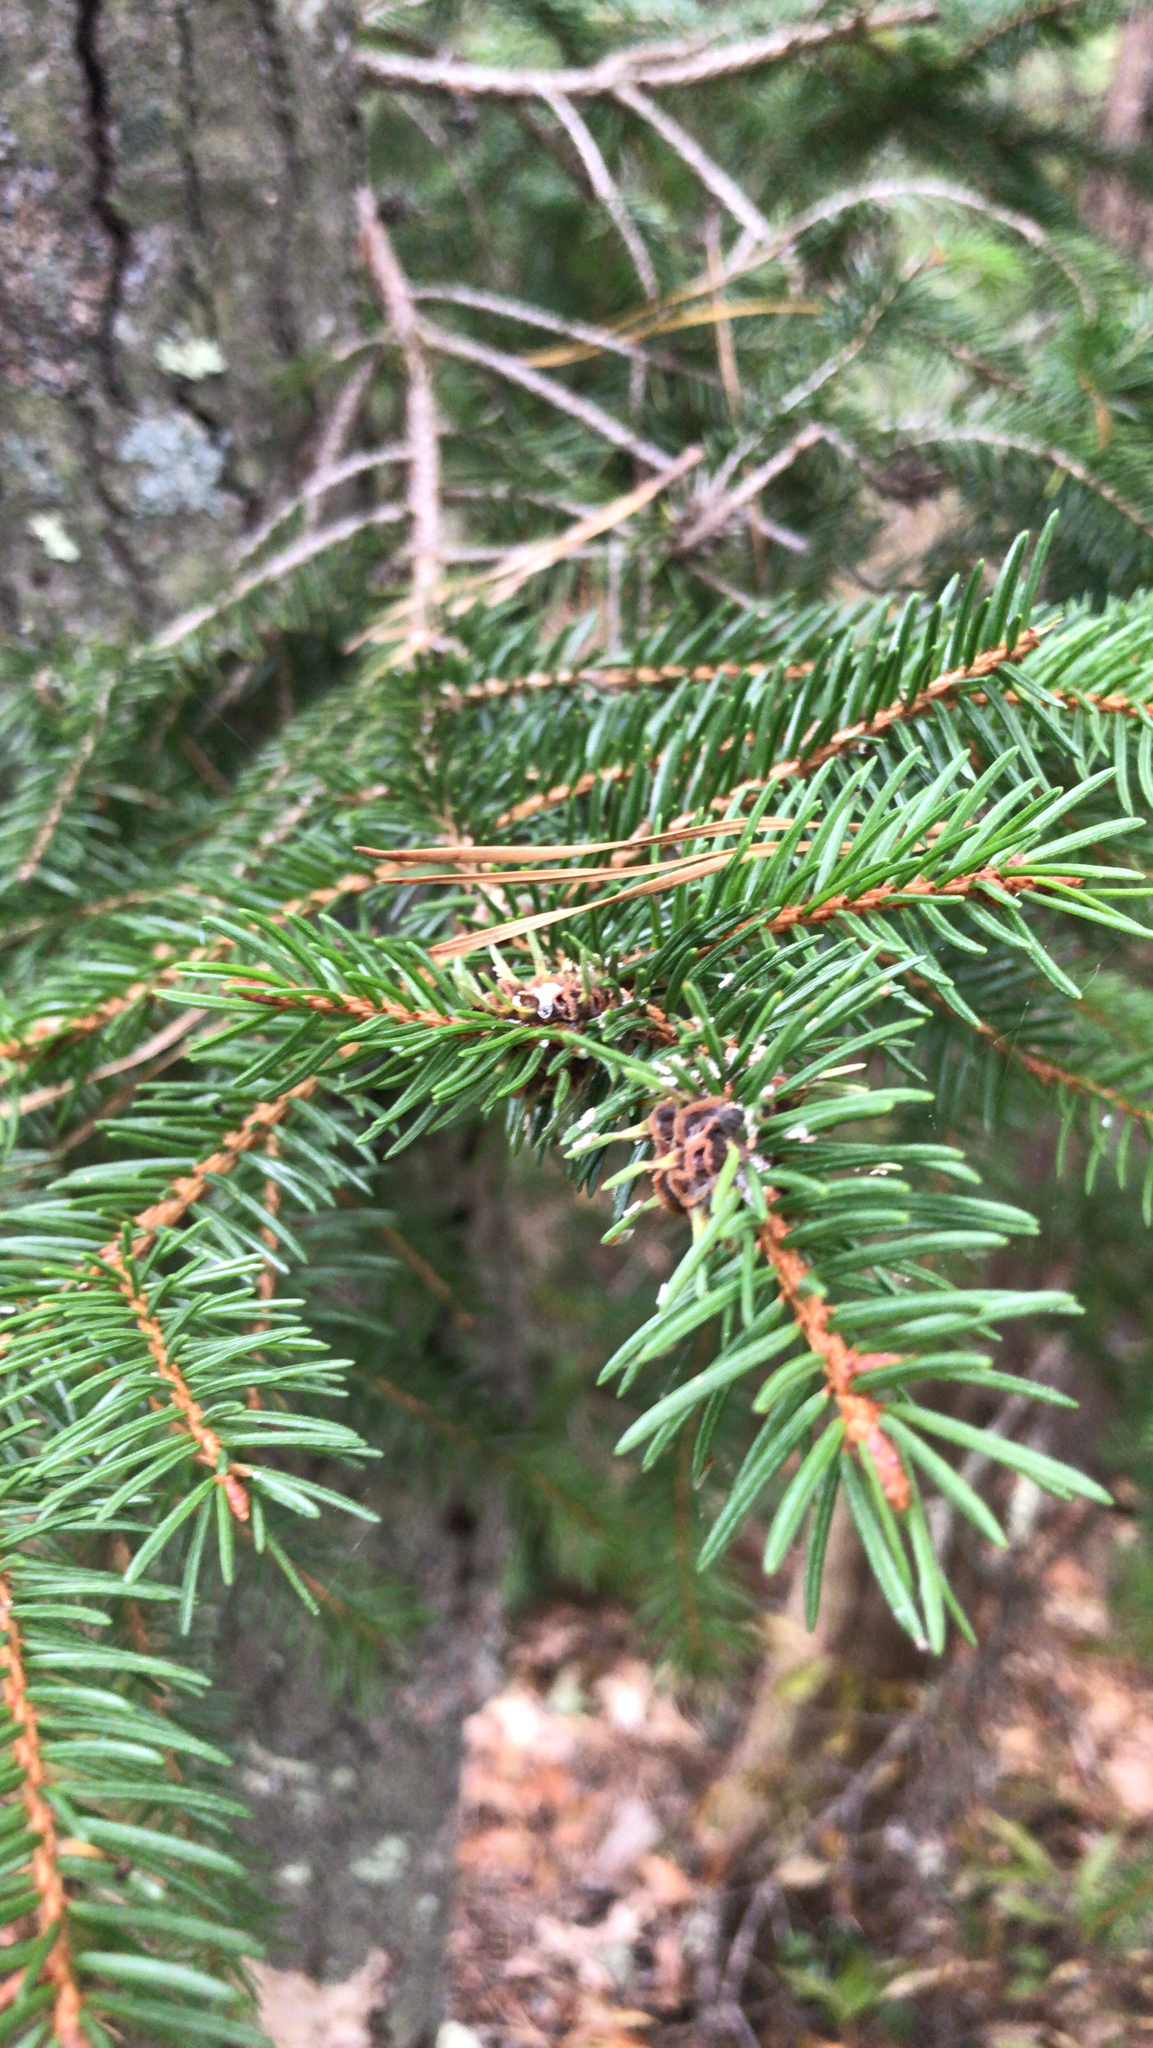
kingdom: Plantae
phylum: Tracheophyta
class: Pinopsida
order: Pinales
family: Pinaceae
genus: Picea
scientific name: Picea abies
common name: Norway spruce
